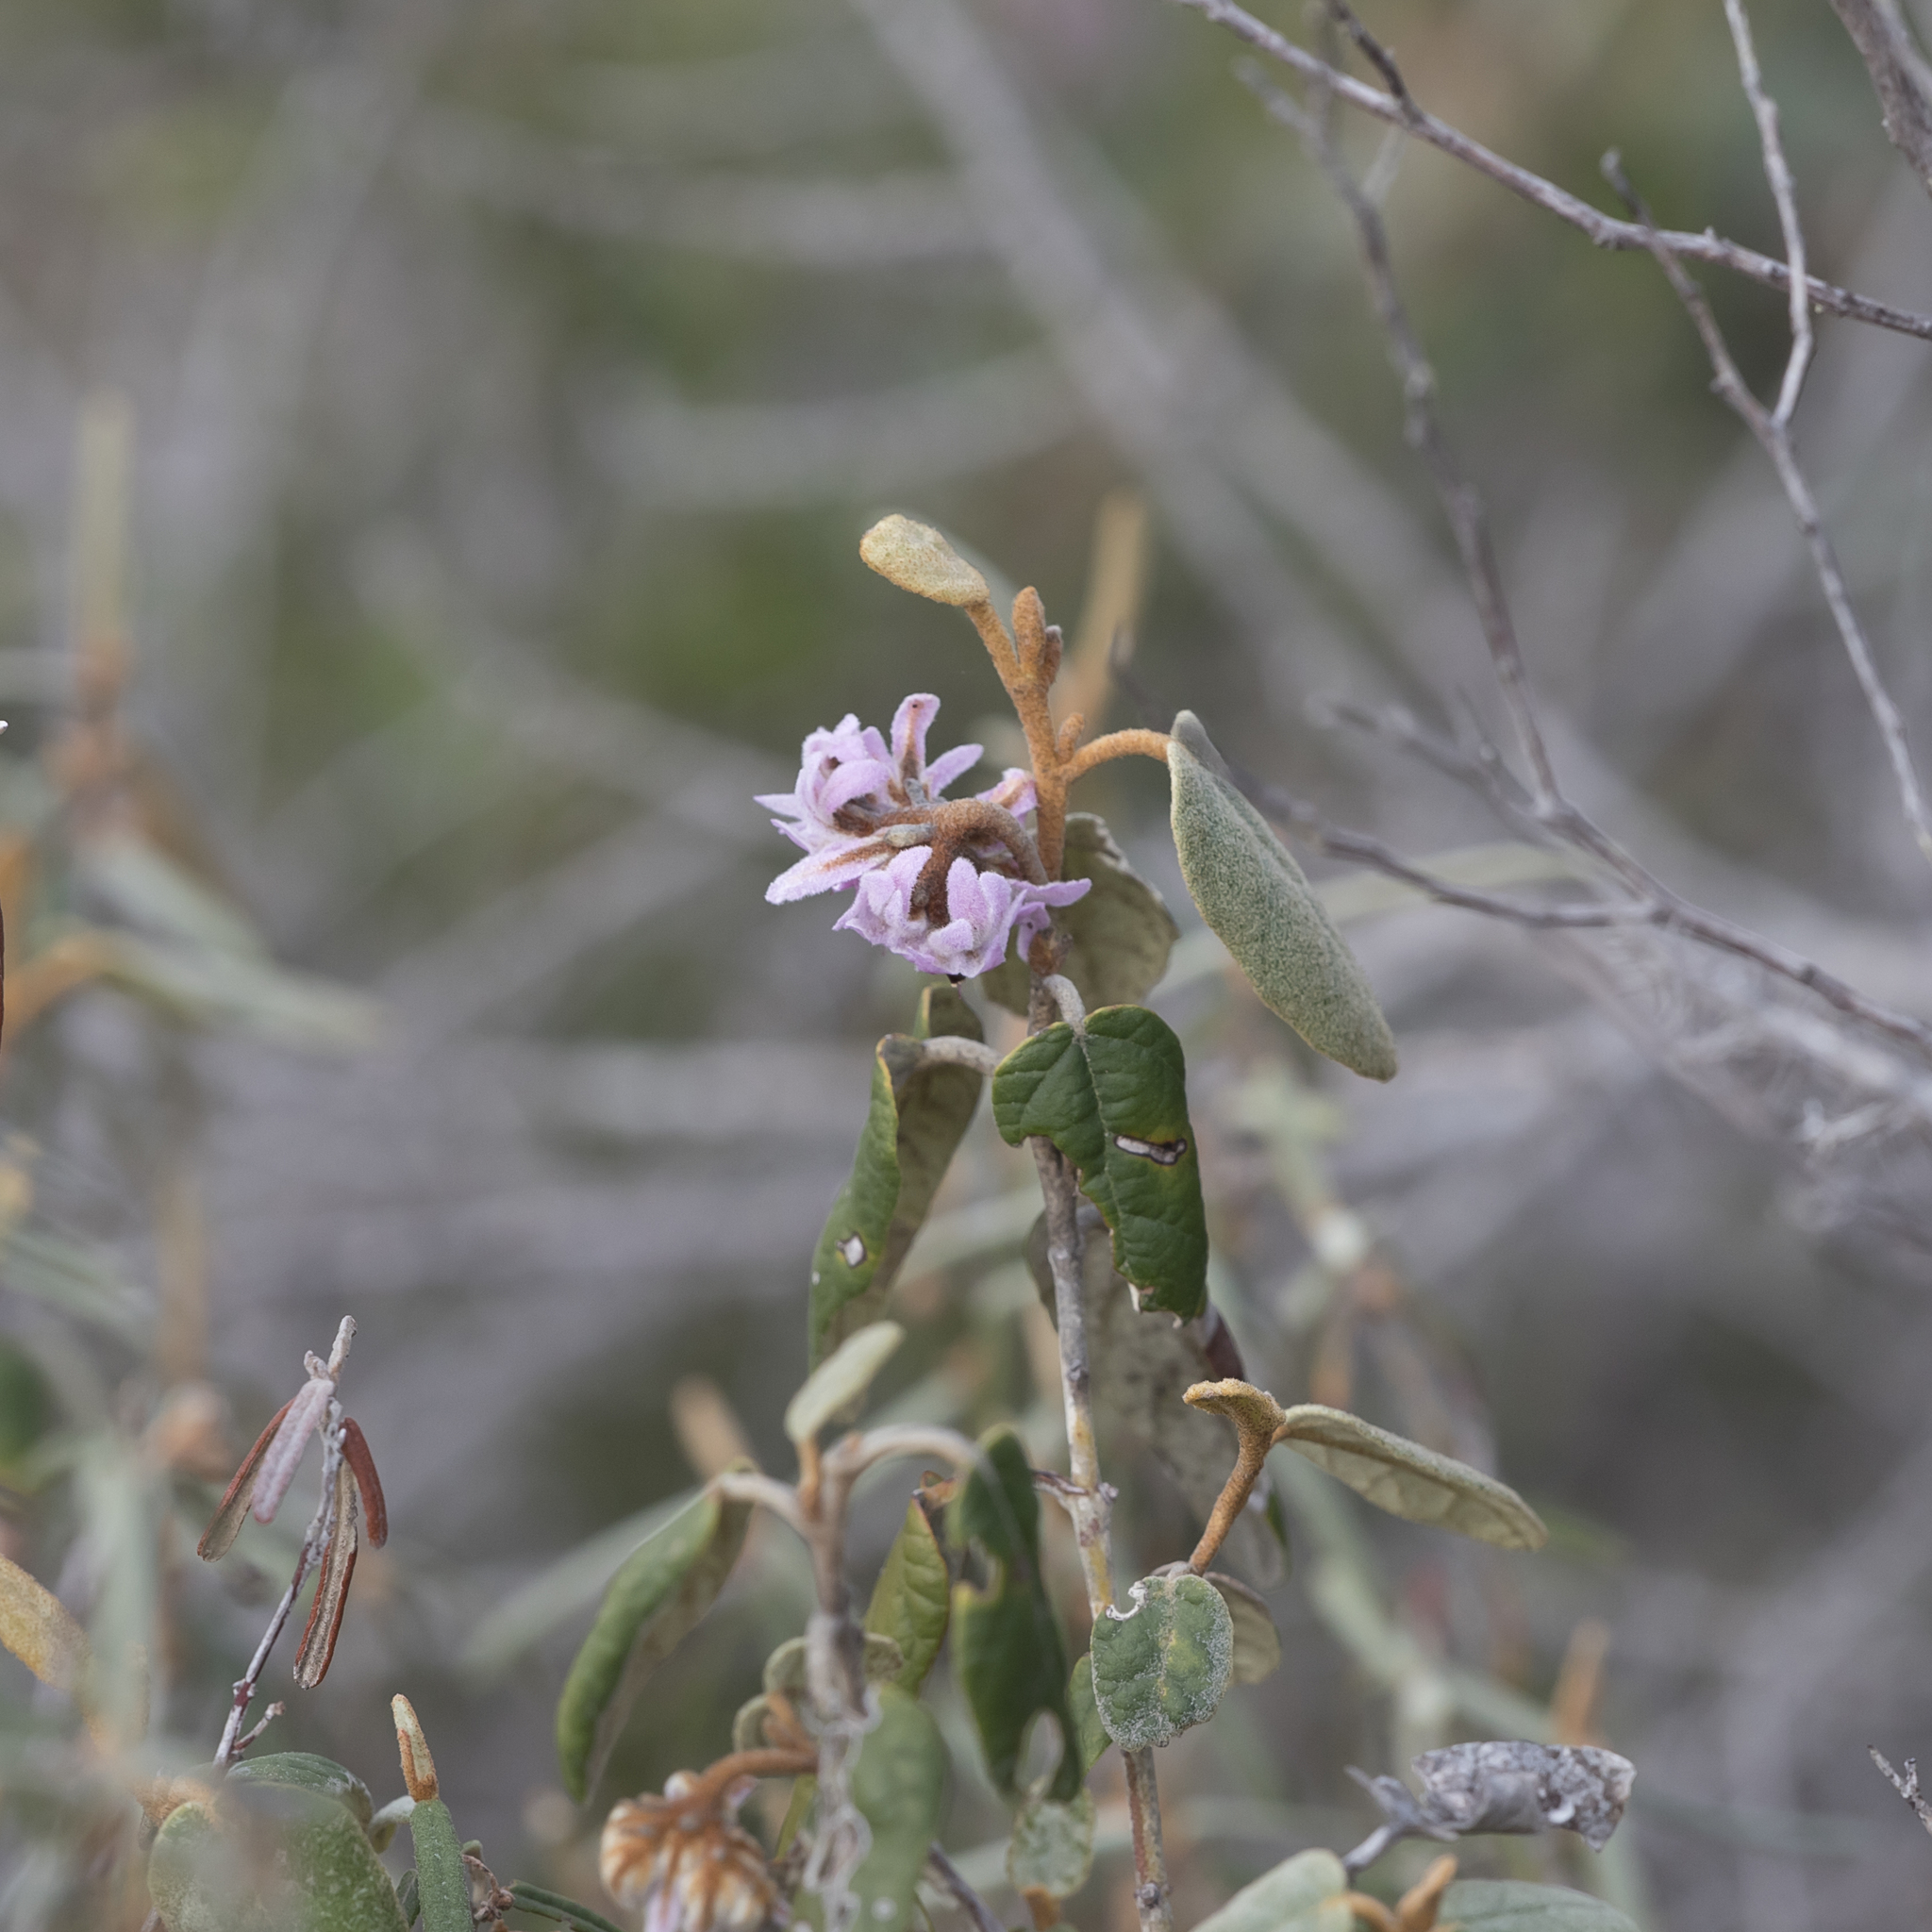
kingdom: Plantae
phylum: Tracheophyta
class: Magnoliopsida
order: Malvales
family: Malvaceae
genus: Lasiopetalum
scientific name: Lasiopetalum discolor
